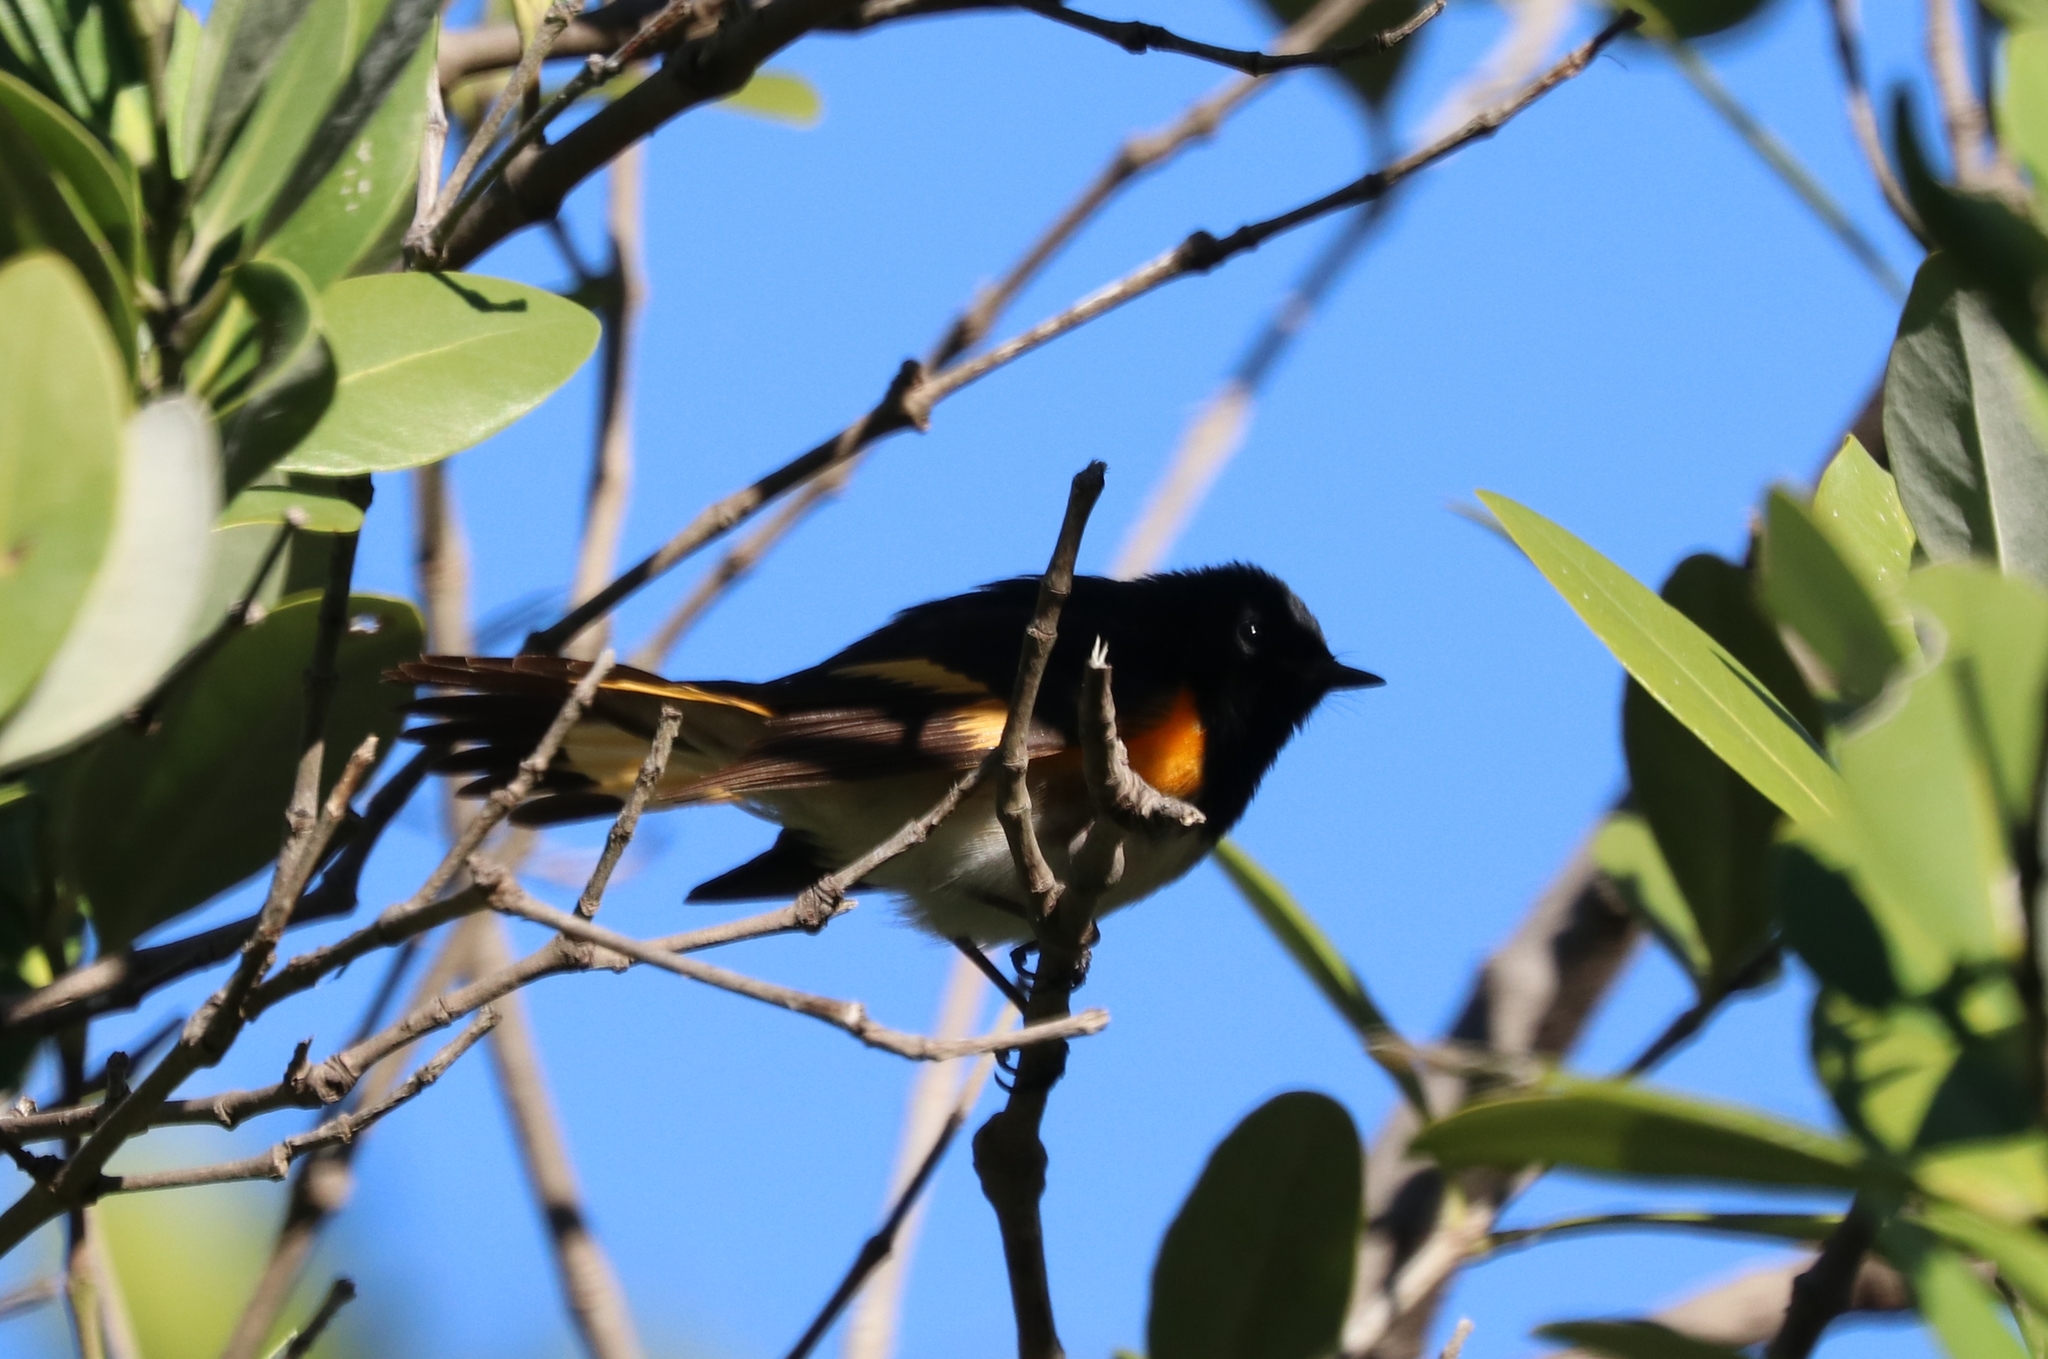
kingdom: Animalia
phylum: Chordata
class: Aves
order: Passeriformes
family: Parulidae
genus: Setophaga
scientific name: Setophaga ruticilla
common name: American redstart
